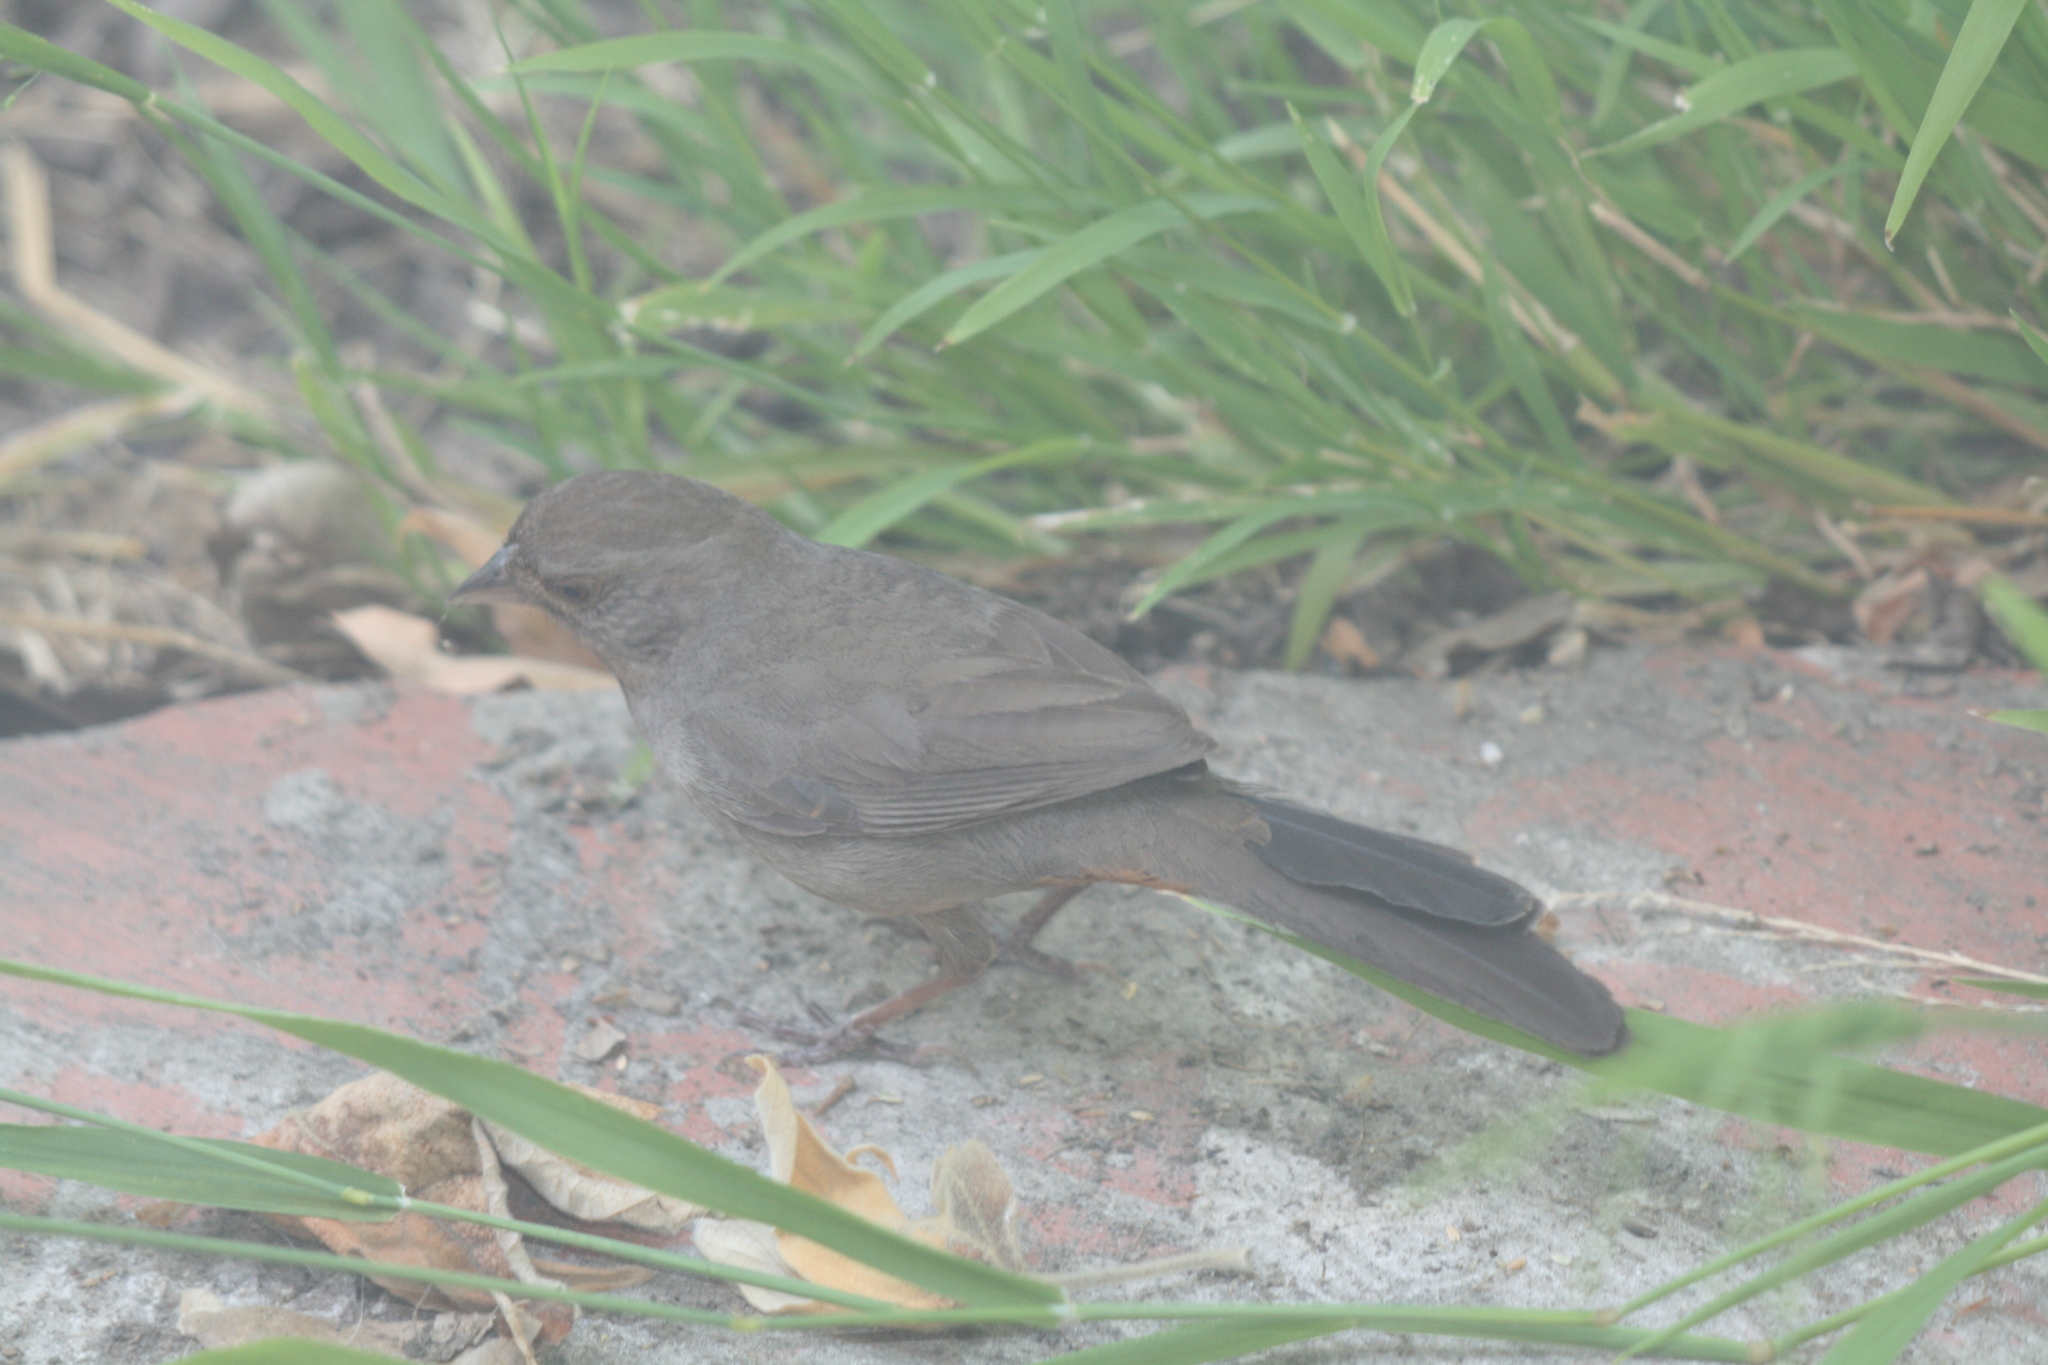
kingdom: Animalia
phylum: Chordata
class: Aves
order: Passeriformes
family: Passerellidae
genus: Melozone
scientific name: Melozone crissalis
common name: California towhee
